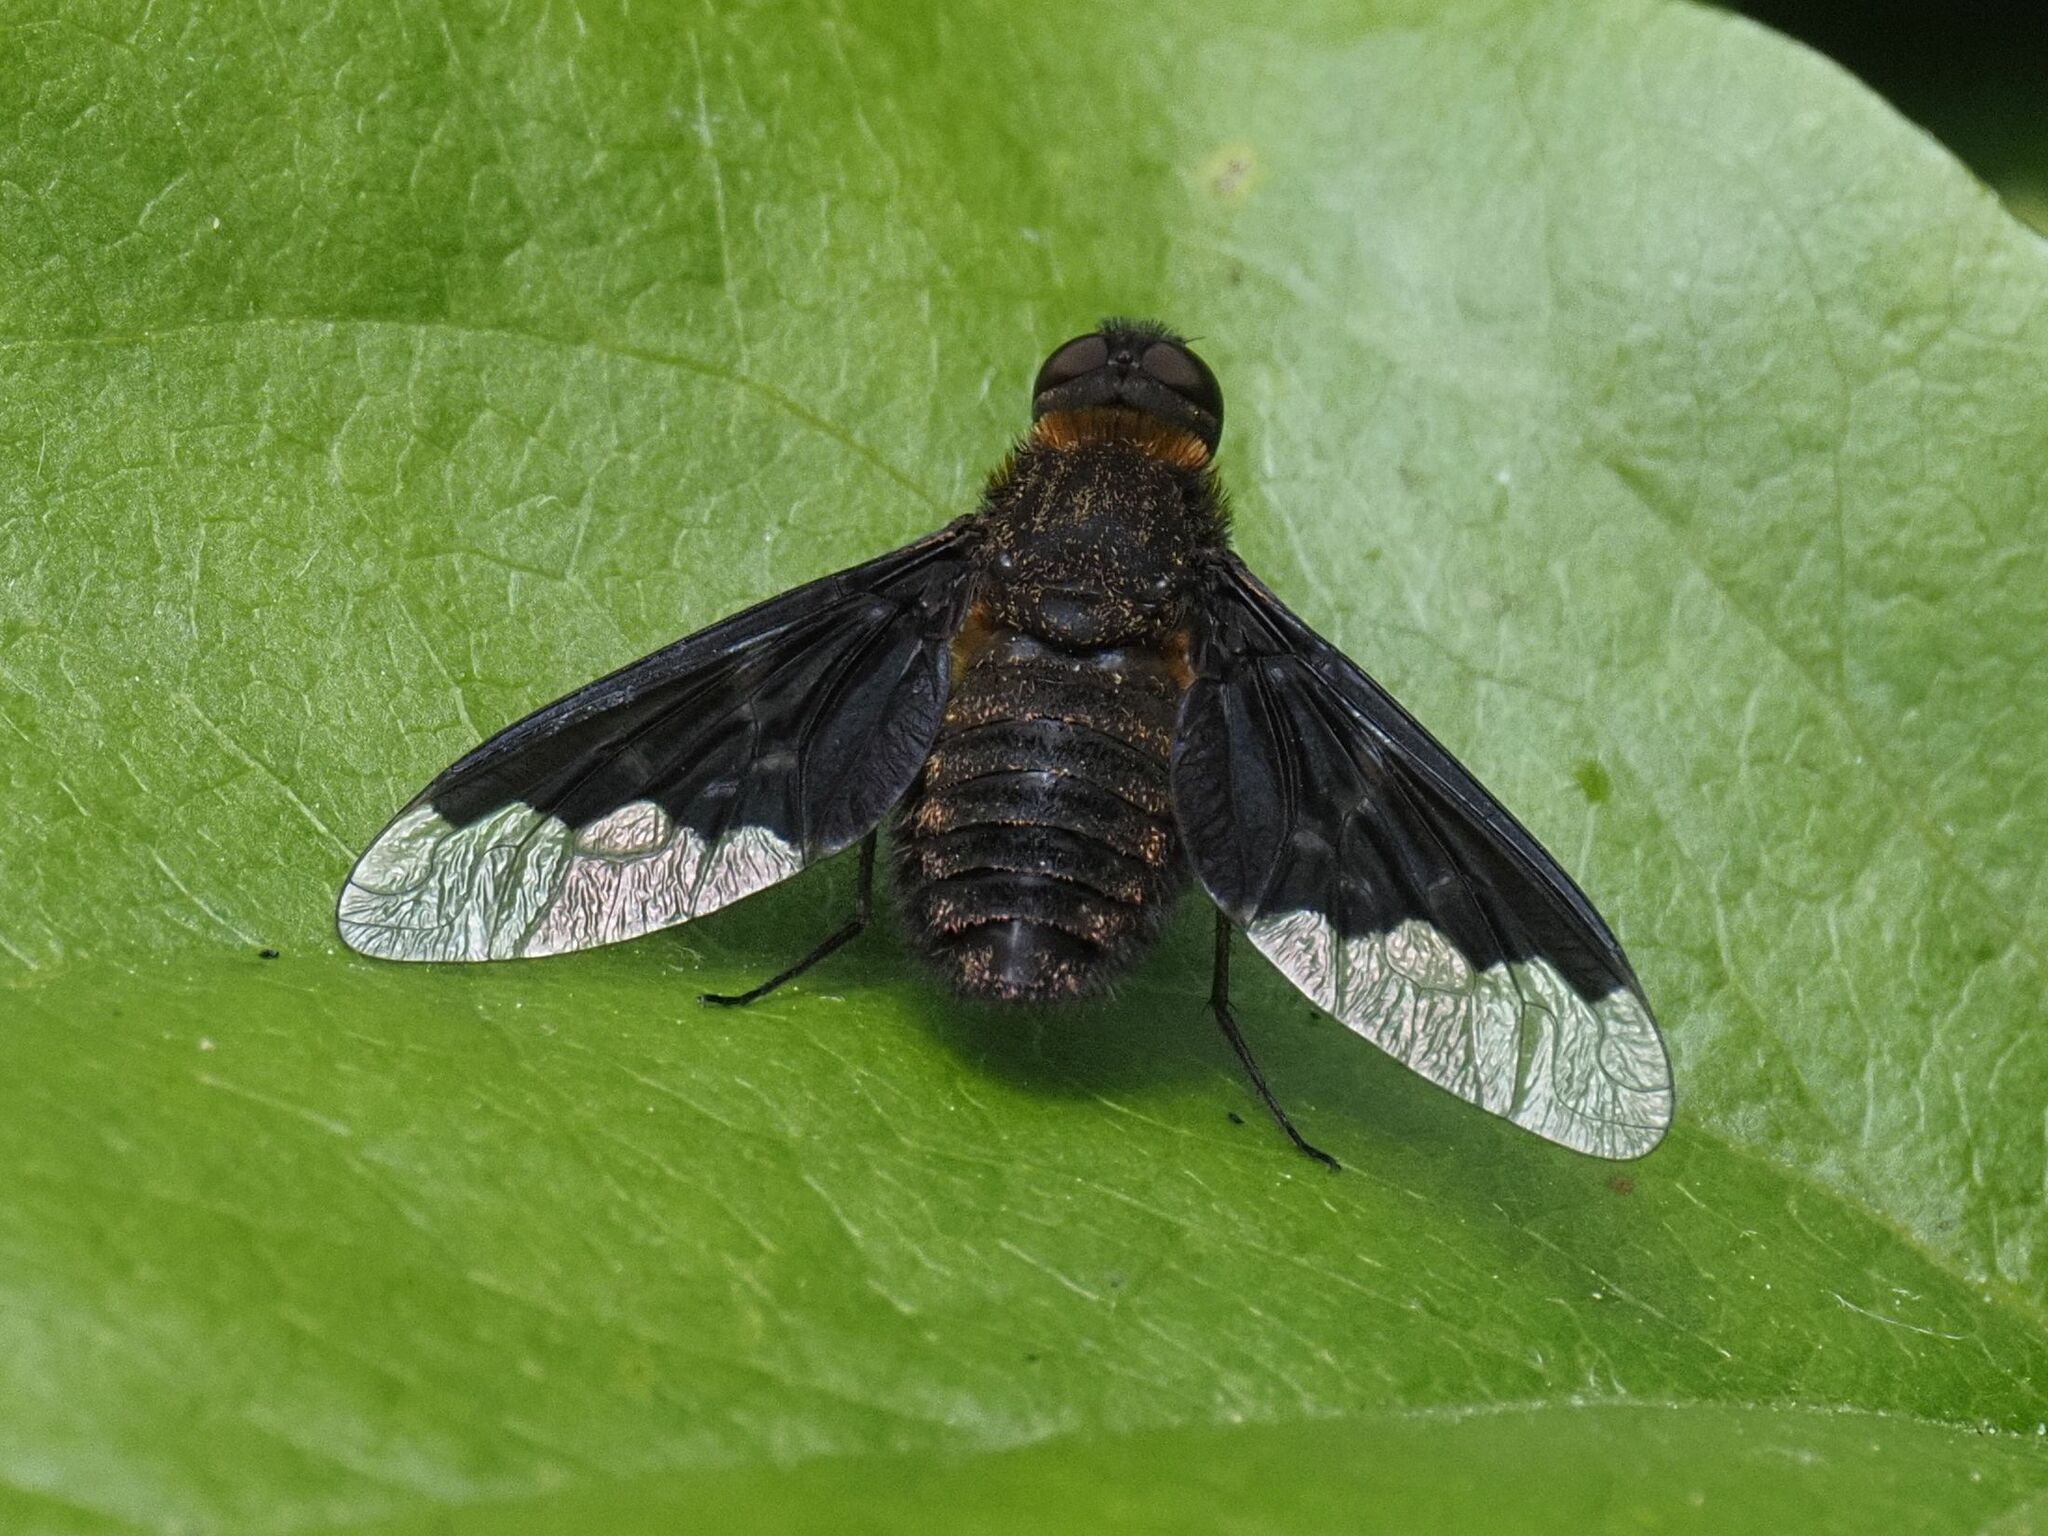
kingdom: Animalia
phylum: Arthropoda
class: Insecta
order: Diptera
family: Bombyliidae
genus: Hemipenthes
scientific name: Hemipenthes morio
